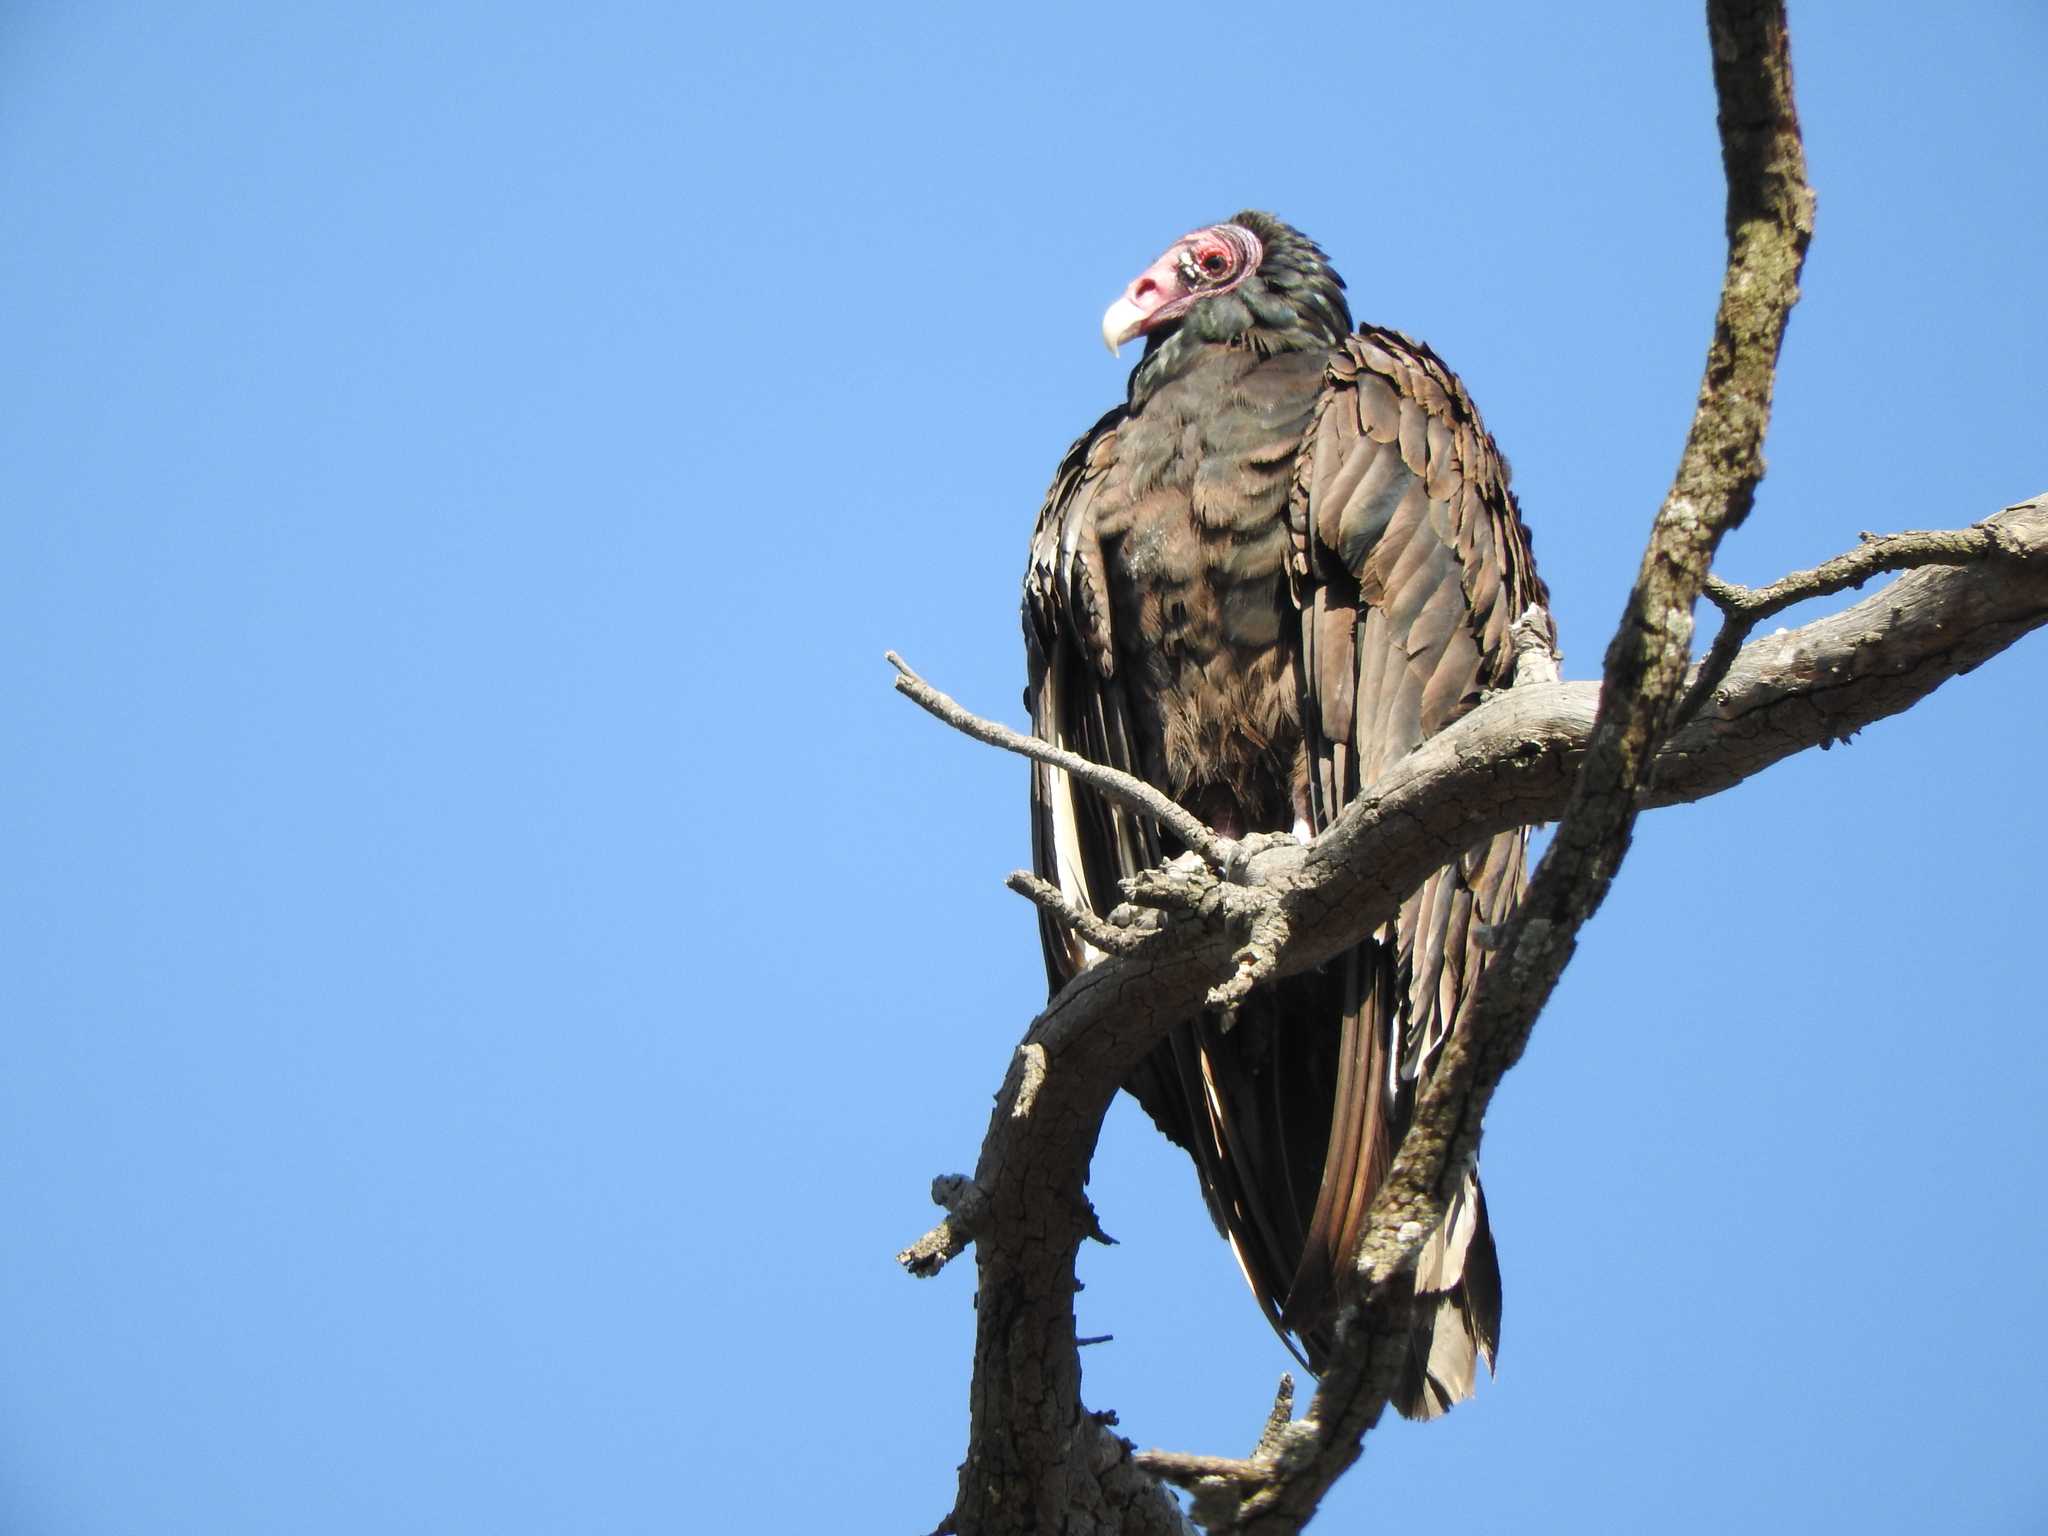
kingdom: Animalia
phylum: Chordata
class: Aves
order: Accipitriformes
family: Cathartidae
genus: Cathartes
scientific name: Cathartes aura
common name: Turkey vulture
